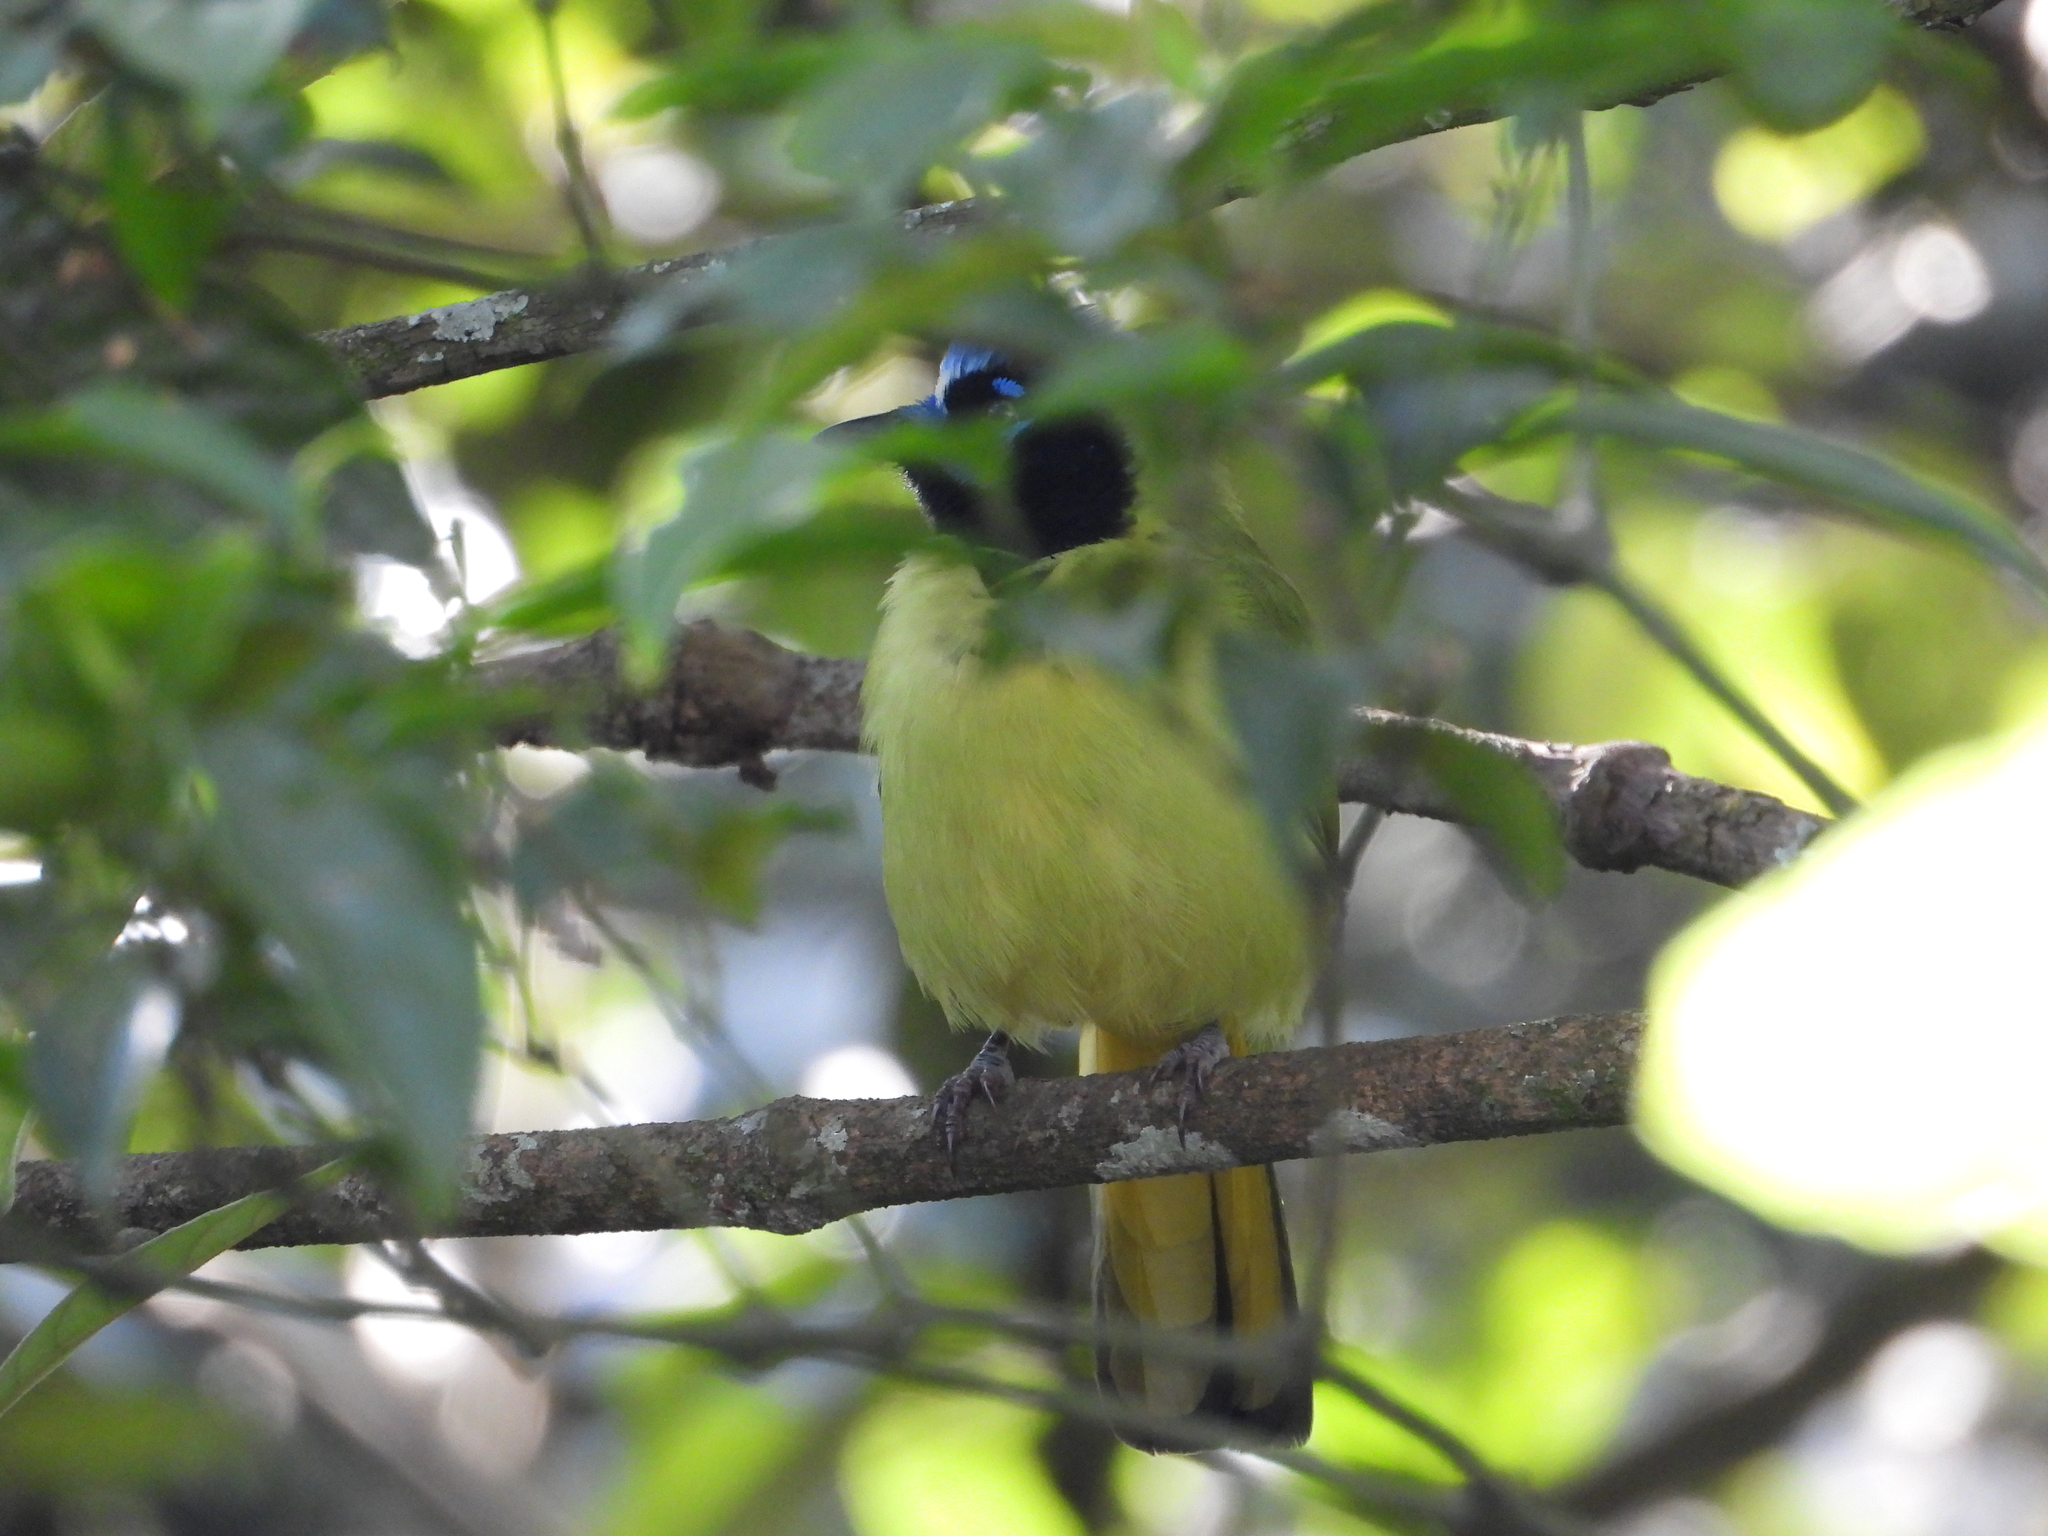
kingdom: Animalia
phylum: Chordata
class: Aves
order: Passeriformes
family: Corvidae
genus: Cyanocorax
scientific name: Cyanocorax yncas
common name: Green jay
